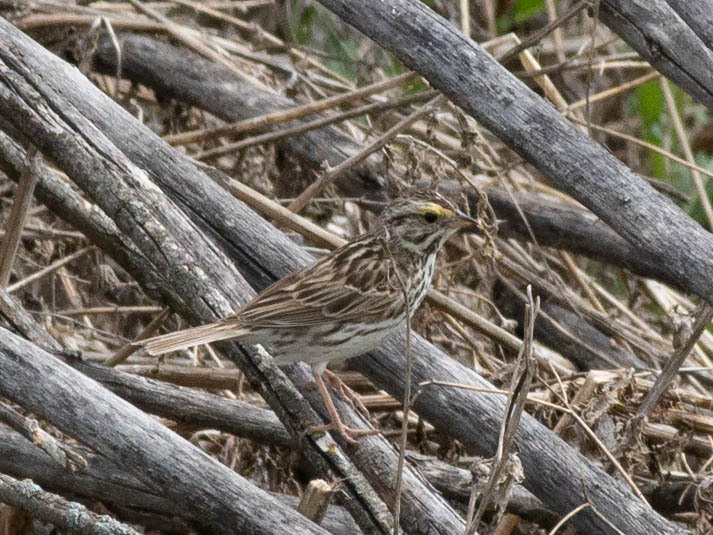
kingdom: Animalia
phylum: Chordata
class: Aves
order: Passeriformes
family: Passerellidae
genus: Passerculus
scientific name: Passerculus sandwichensis
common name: Savannah sparrow
